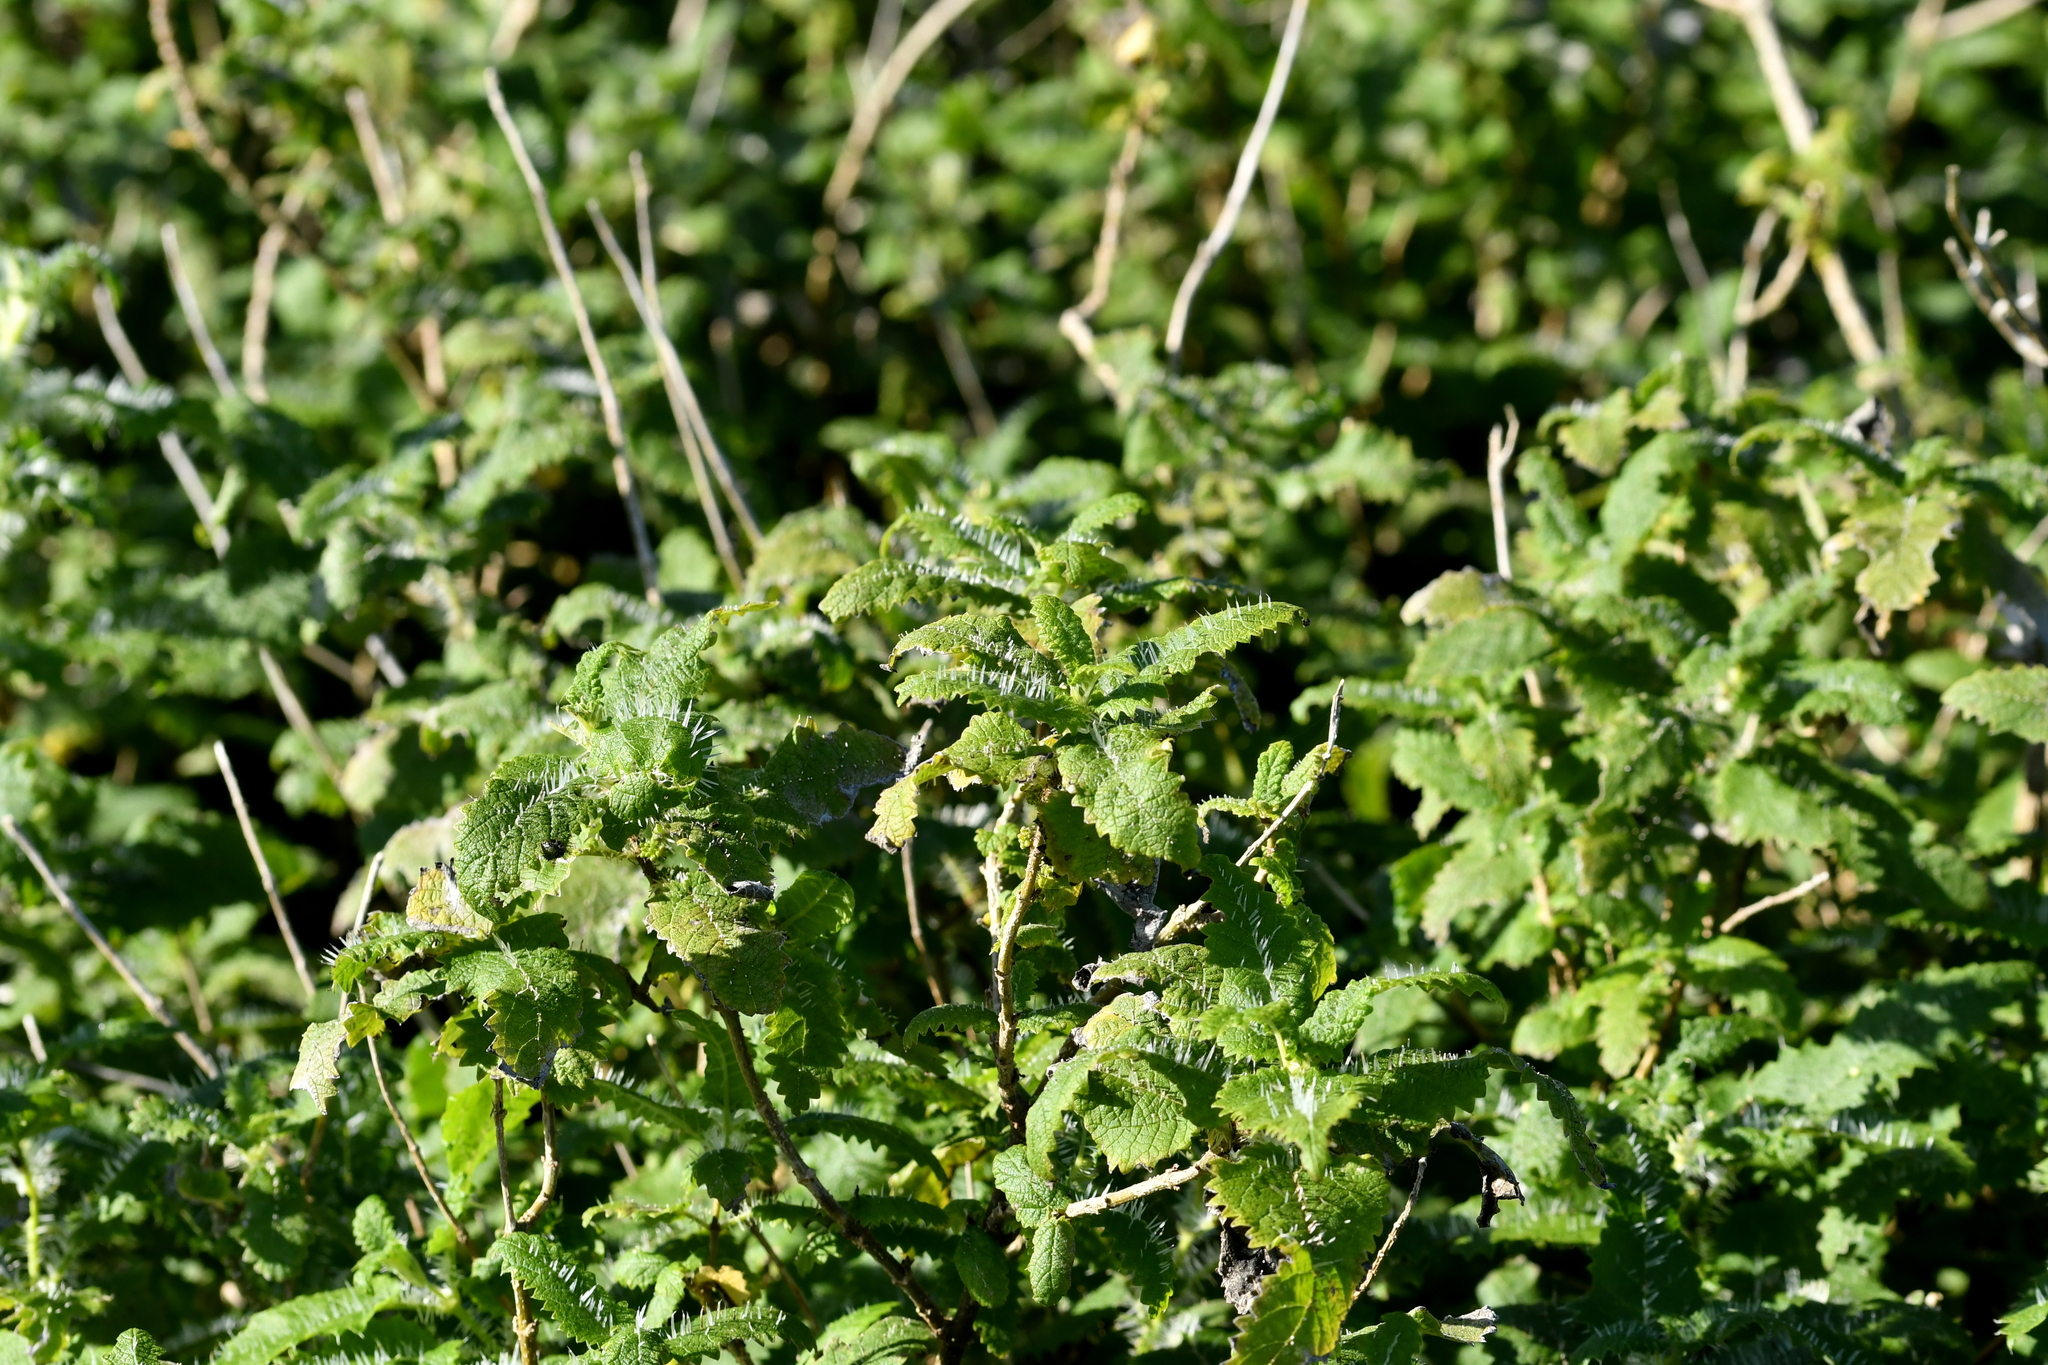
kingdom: Plantae
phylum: Tracheophyta
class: Magnoliopsida
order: Rosales
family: Urticaceae
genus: Urtica
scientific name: Urtica ferox
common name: Tree nettle
